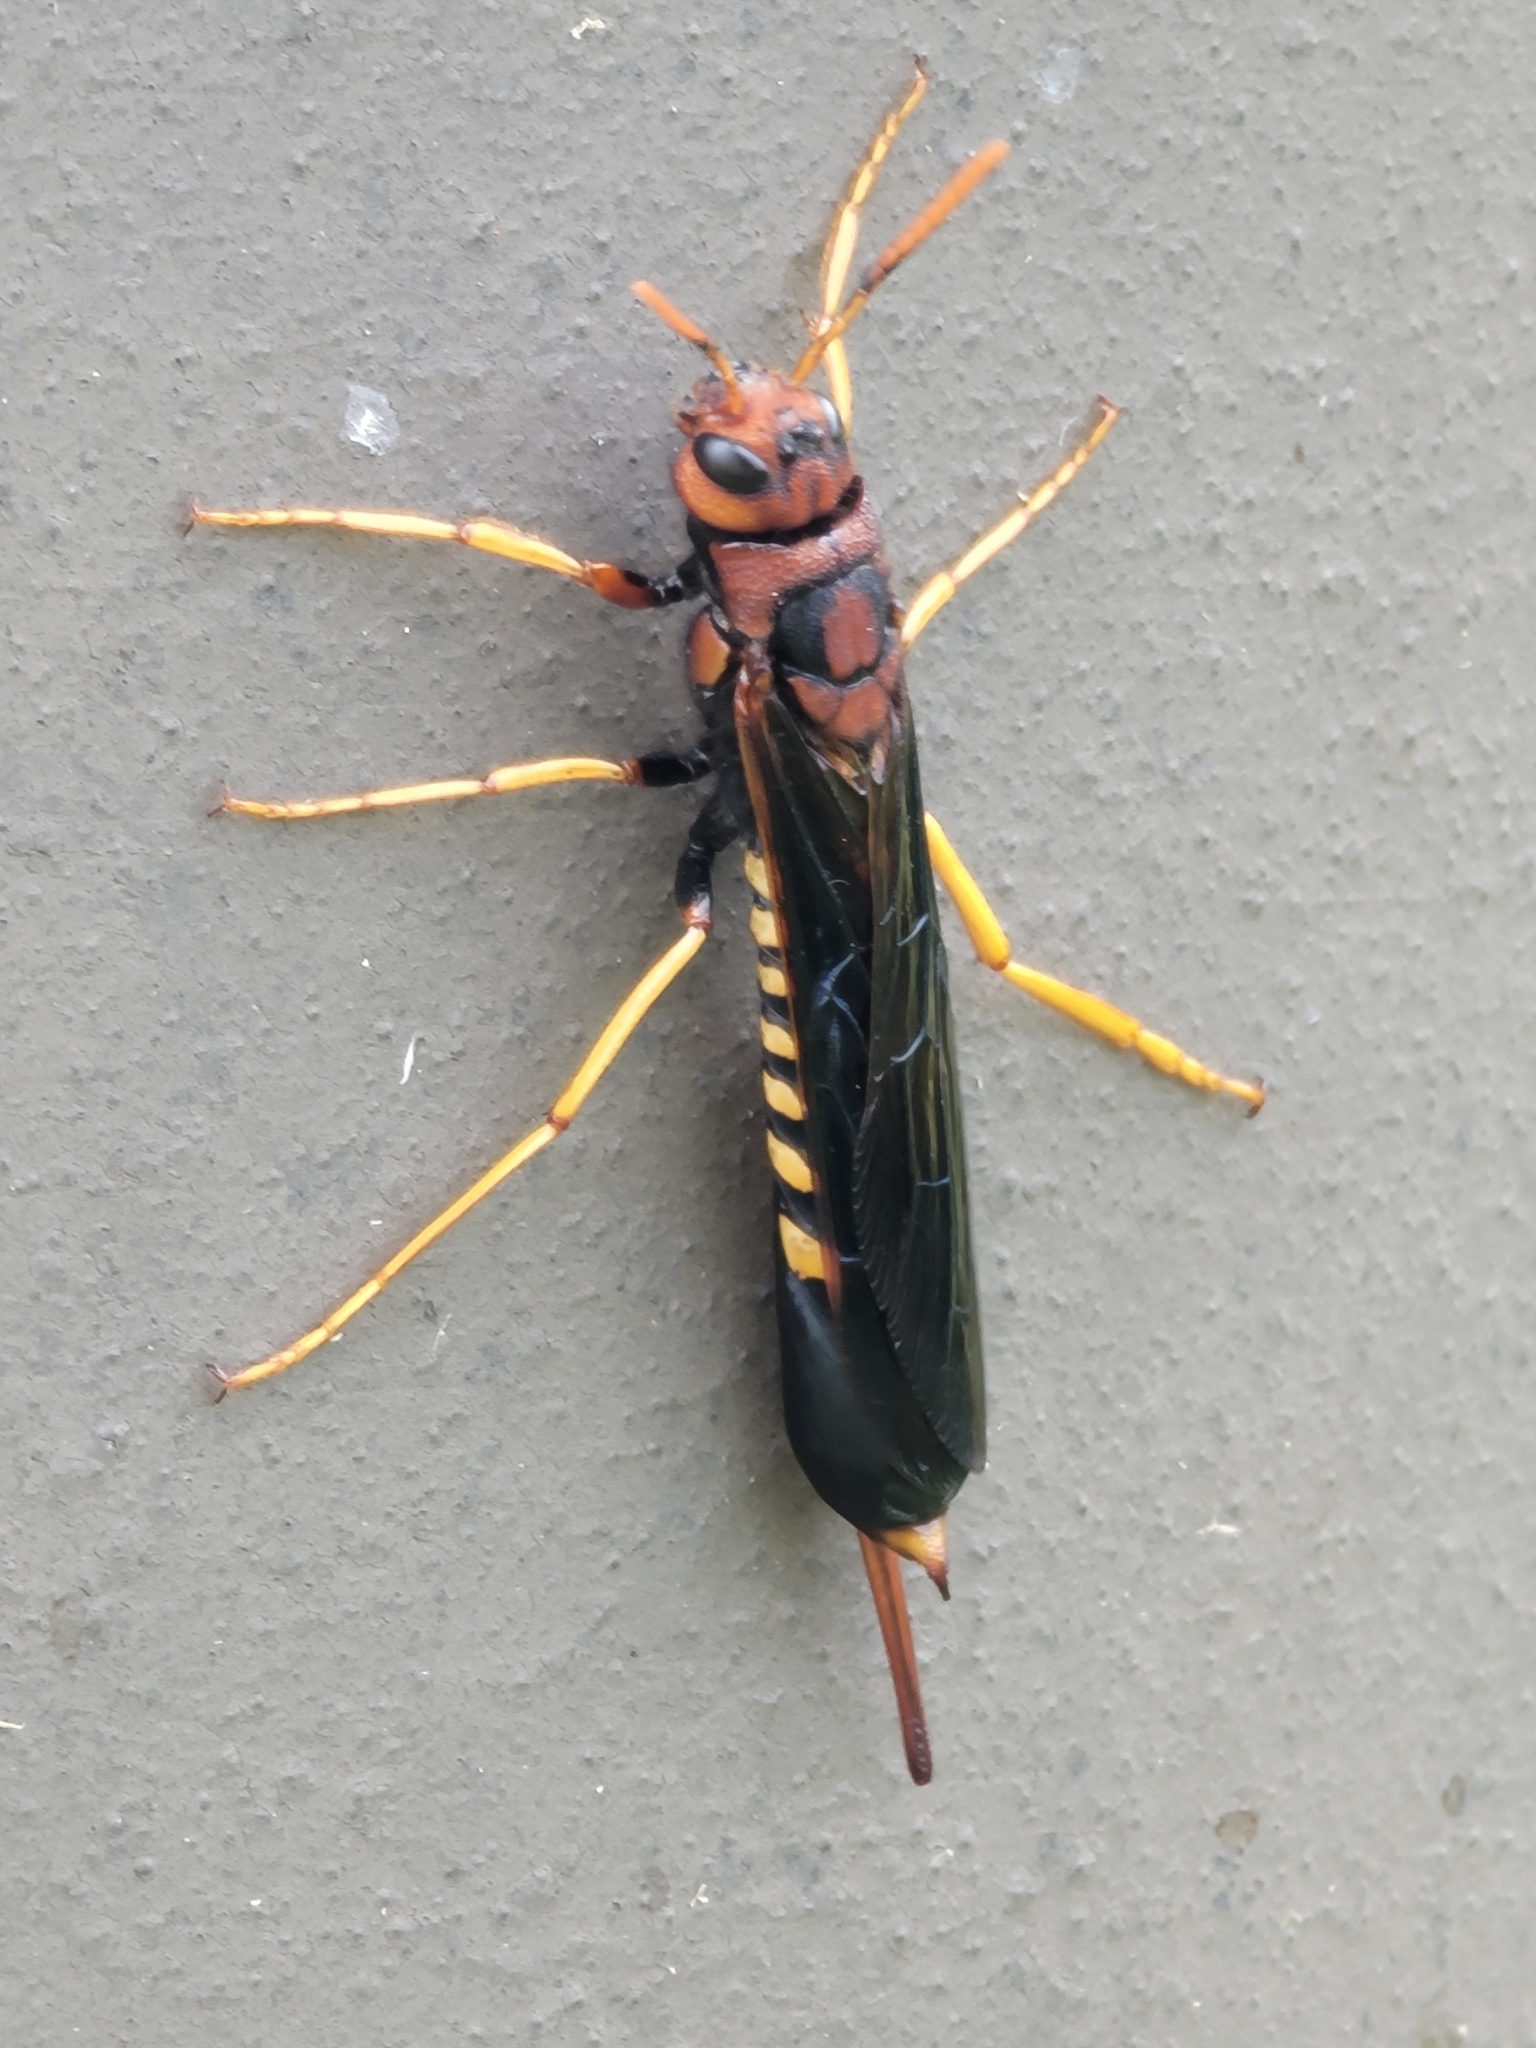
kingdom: Animalia
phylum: Arthropoda
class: Insecta
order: Hymenoptera
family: Siricidae
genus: Tremex
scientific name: Tremex columba
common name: Wasp
